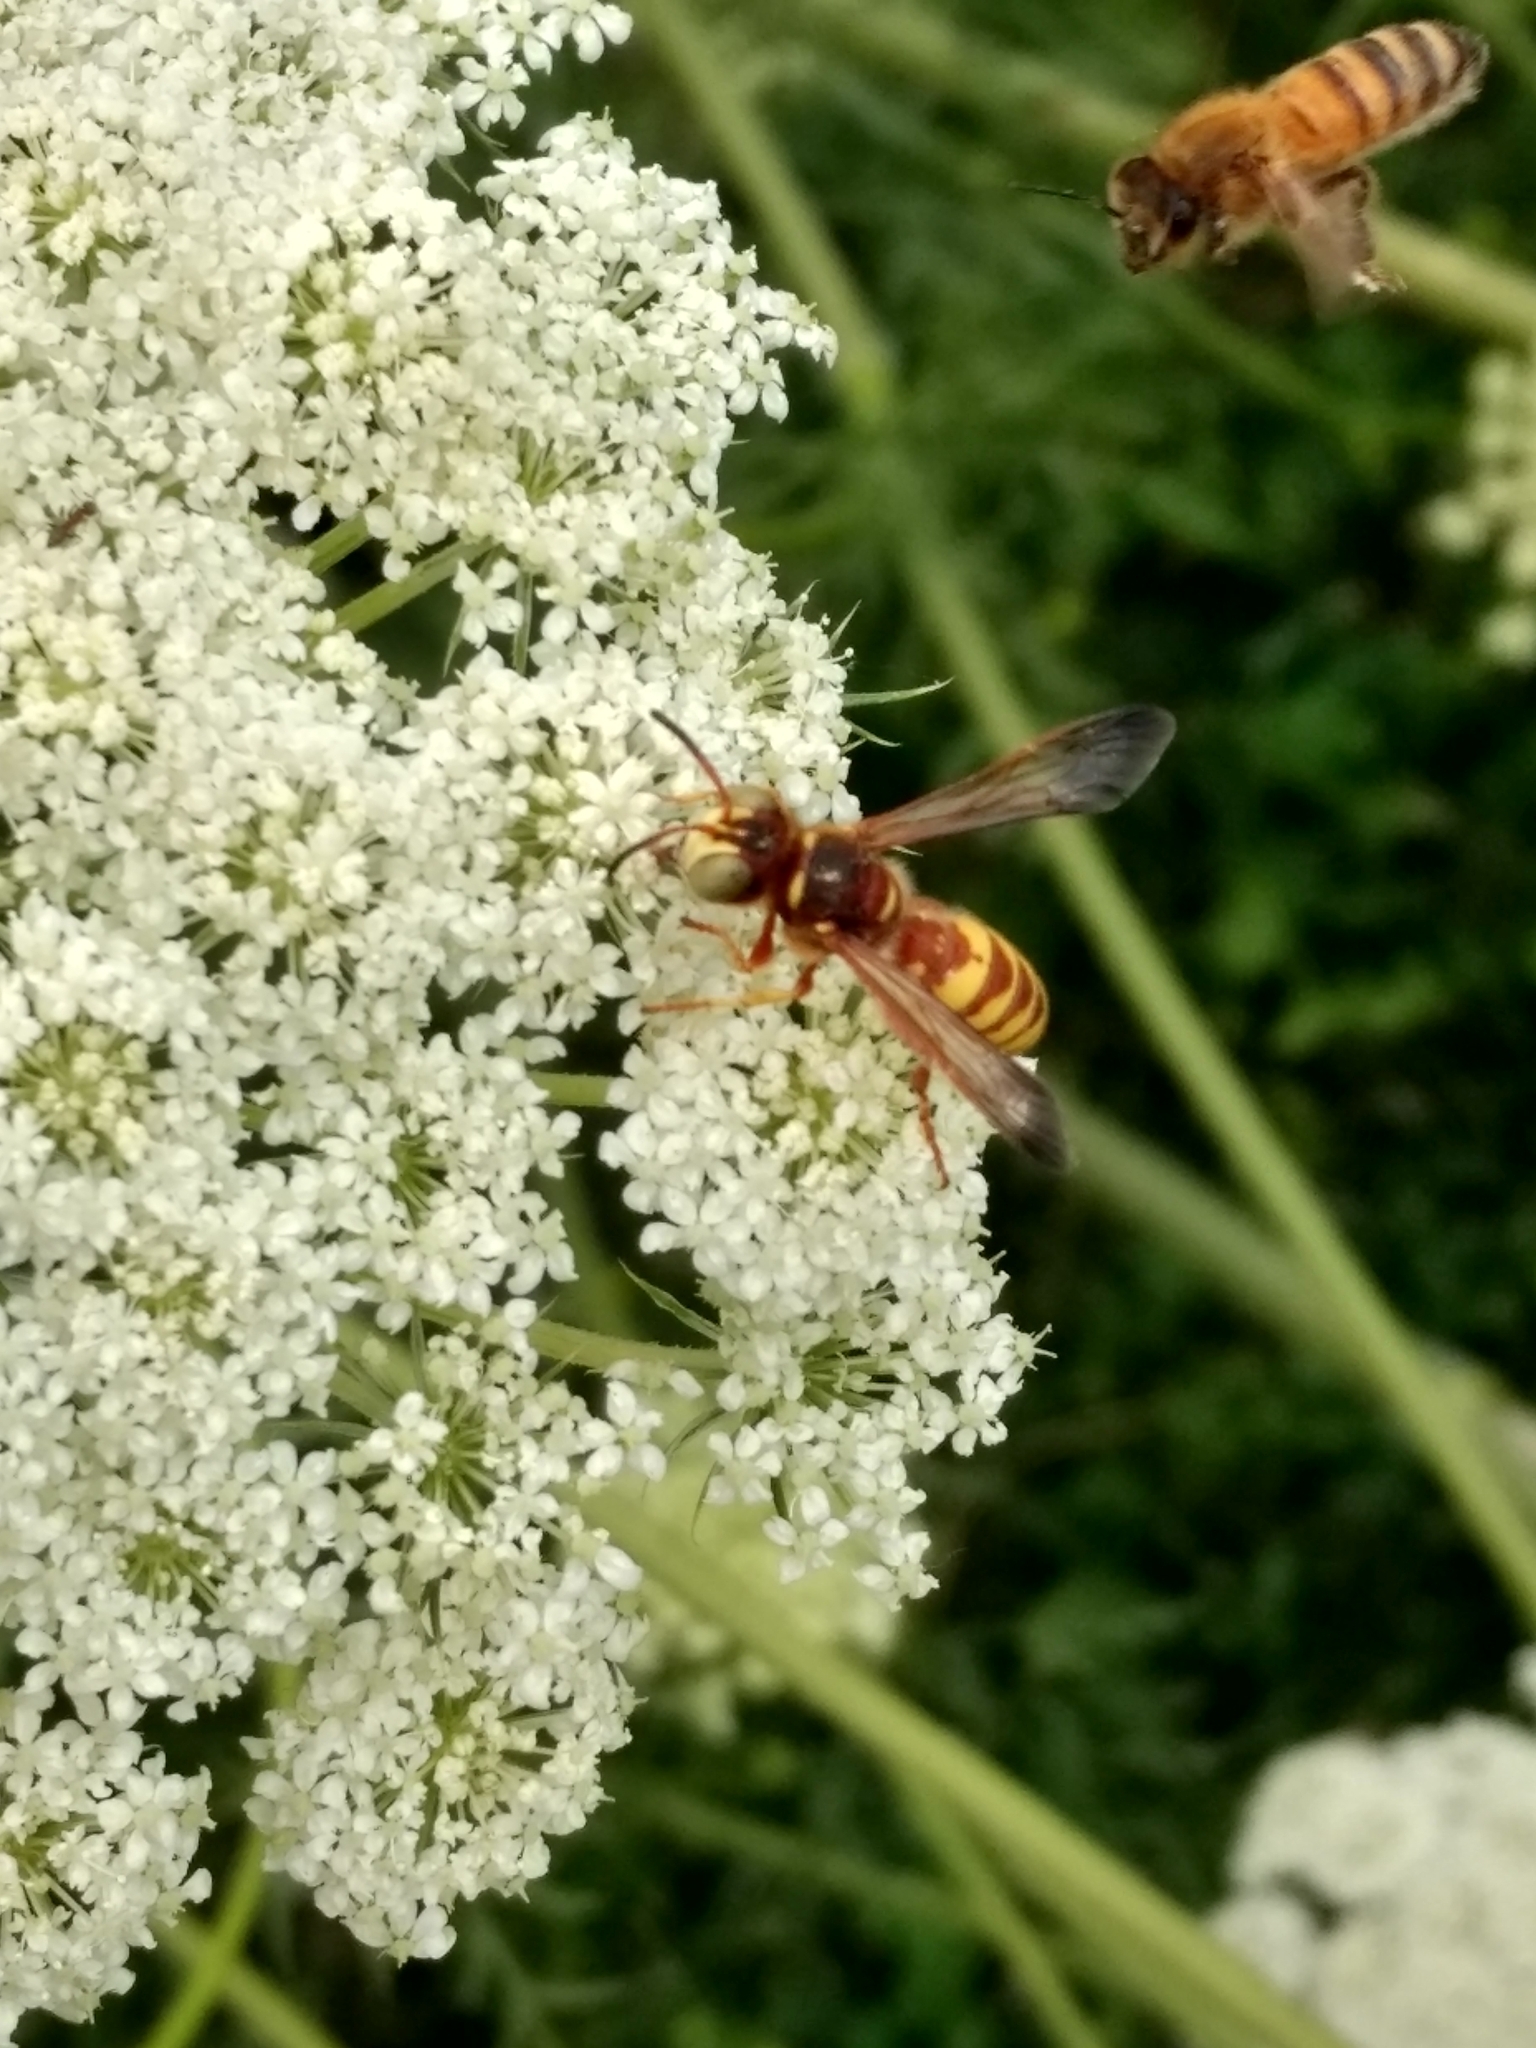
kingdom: Animalia
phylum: Arthropoda
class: Insecta
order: Hymenoptera
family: Apidae
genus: Apis
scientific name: Apis mellifera
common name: Honey bee
